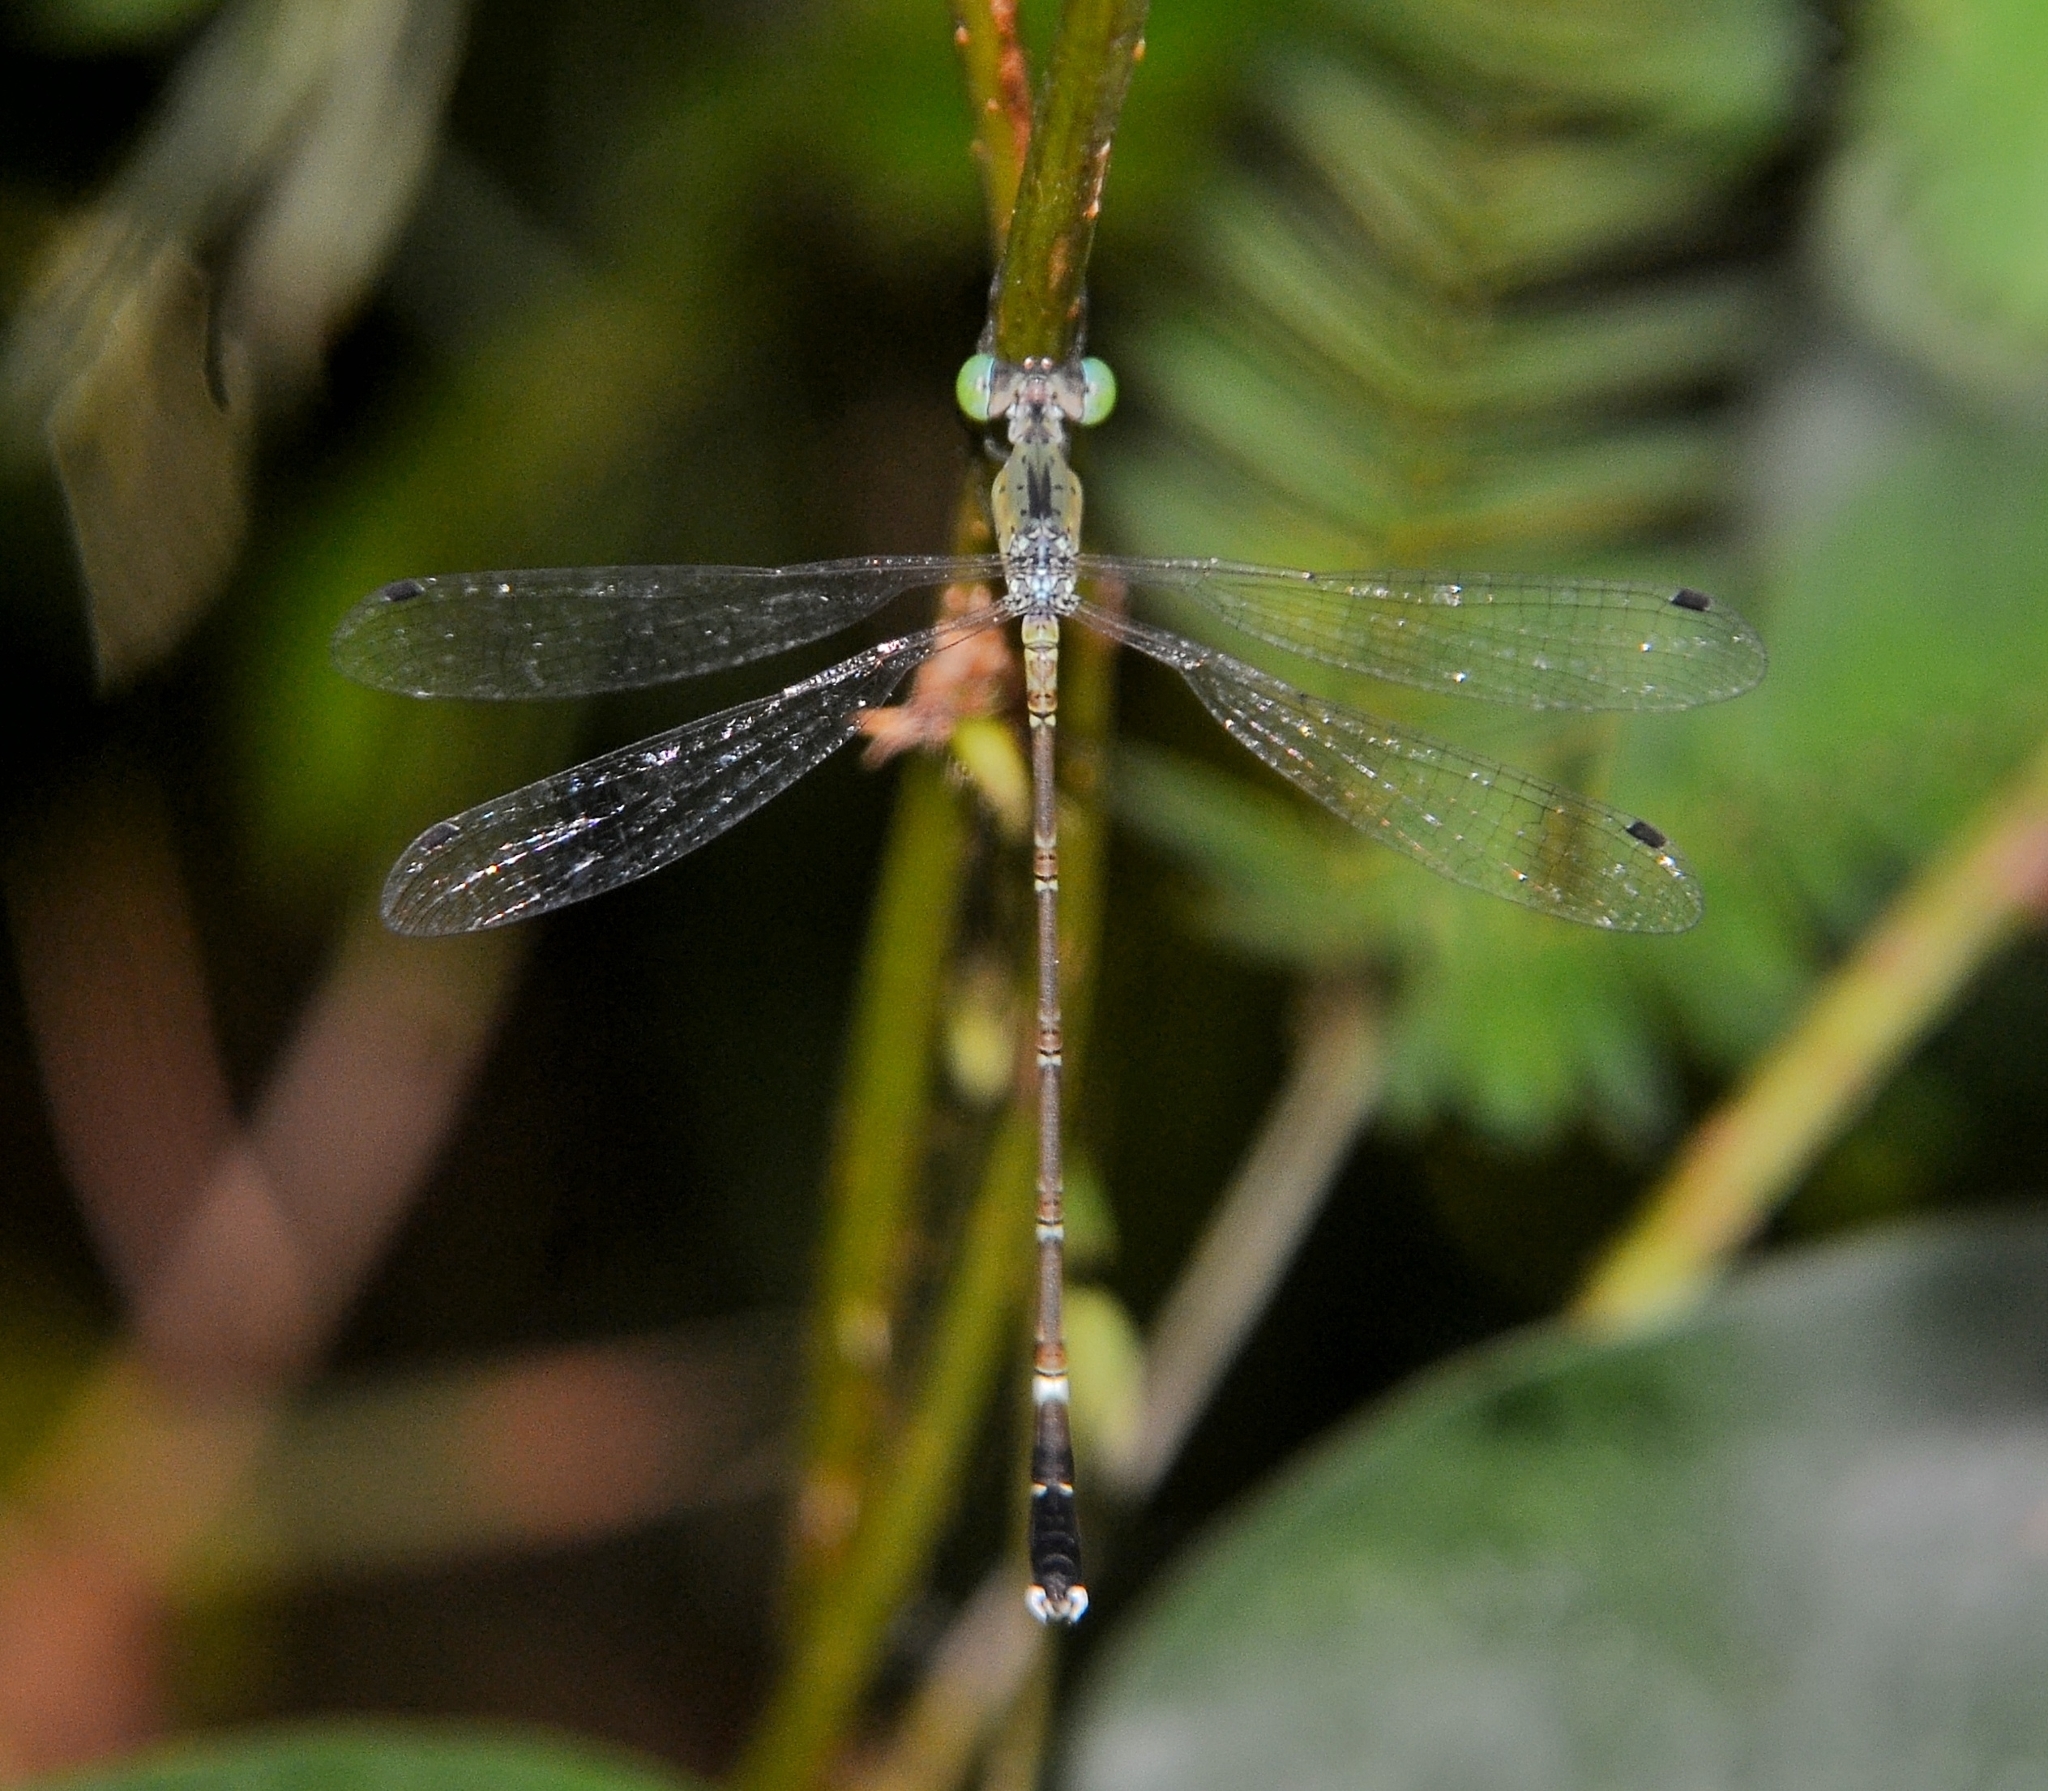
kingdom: Animalia
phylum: Arthropoda
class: Insecta
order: Odonata
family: Lestidae
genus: Platylestes
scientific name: Platylestes kirani
